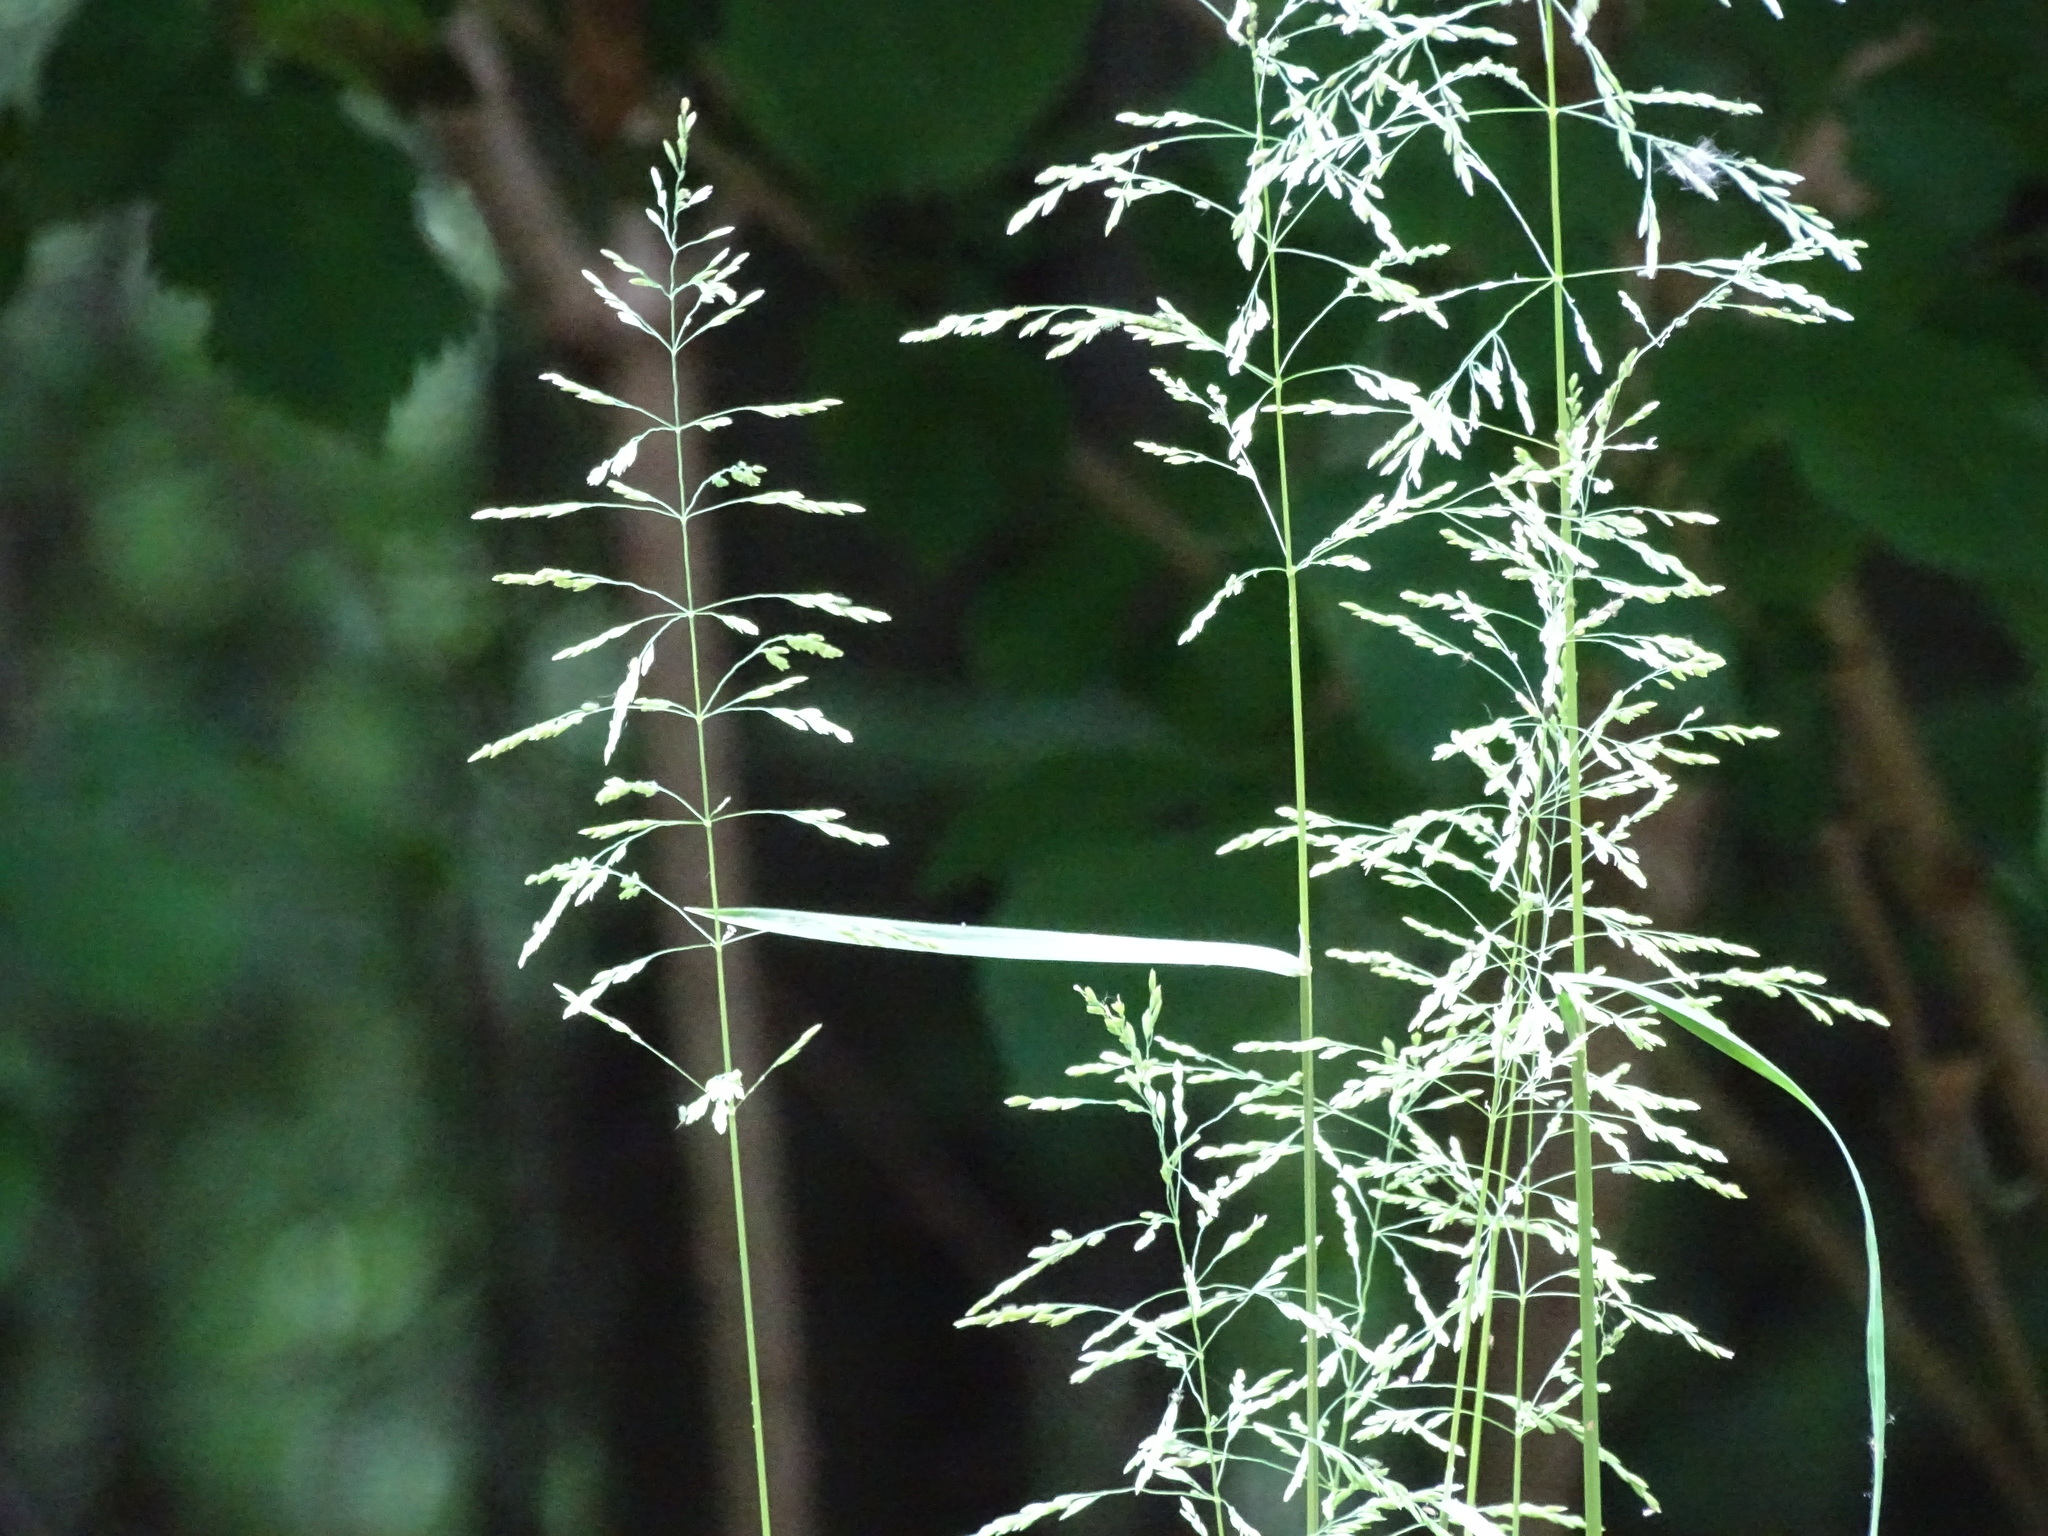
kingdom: Plantae
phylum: Tracheophyta
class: Liliopsida
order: Poales
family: Poaceae
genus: Poa
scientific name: Poa trivialis
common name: Rough bluegrass
